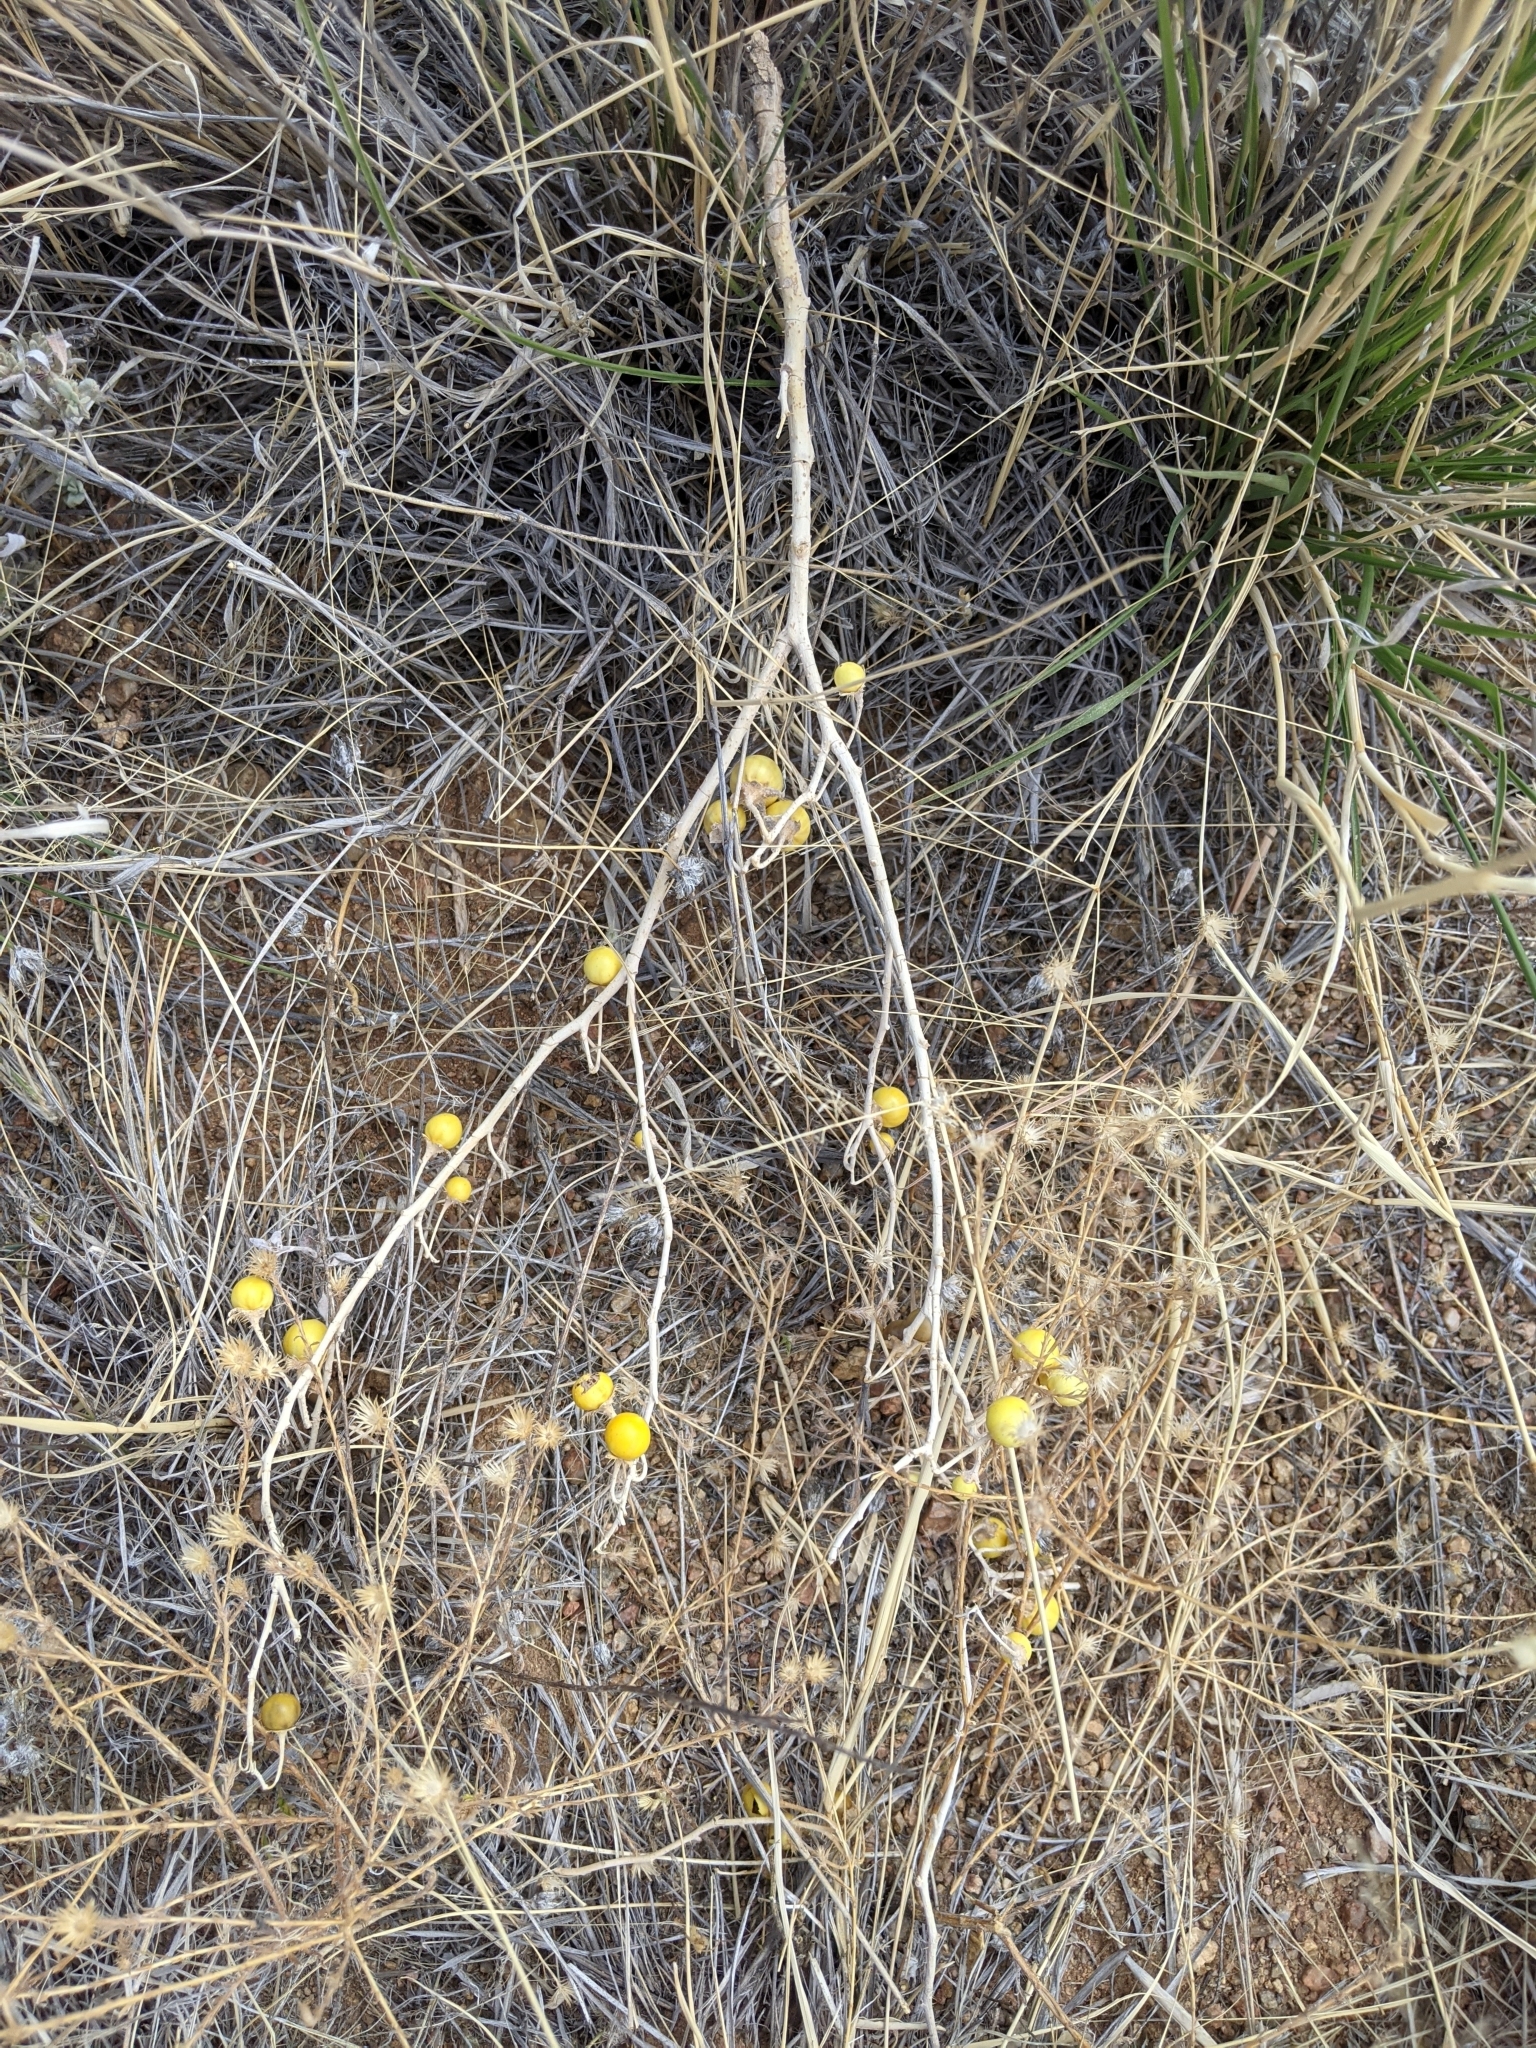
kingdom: Plantae
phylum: Tracheophyta
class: Magnoliopsida
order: Solanales
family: Solanaceae
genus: Solanum
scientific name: Solanum elaeagnifolium
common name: Silverleaf nightshade
